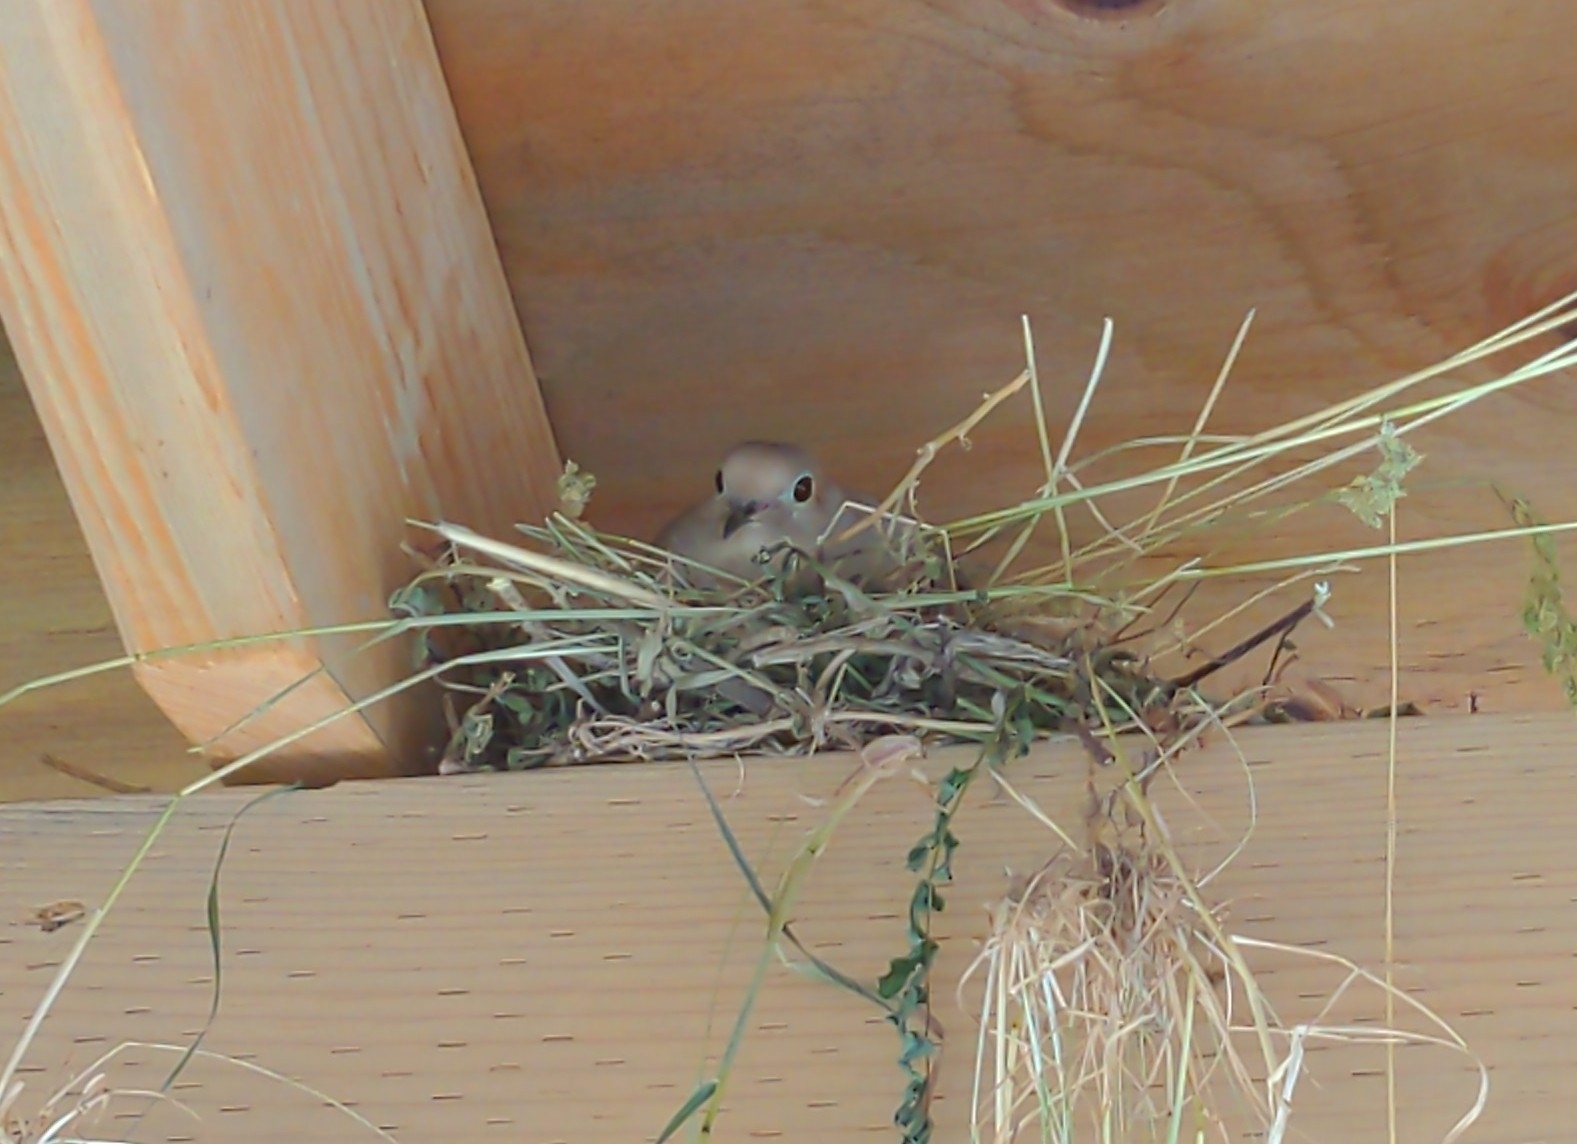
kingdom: Animalia
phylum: Chordata
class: Aves
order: Columbiformes
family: Columbidae
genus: Zenaida
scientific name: Zenaida macroura
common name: Mourning dove
